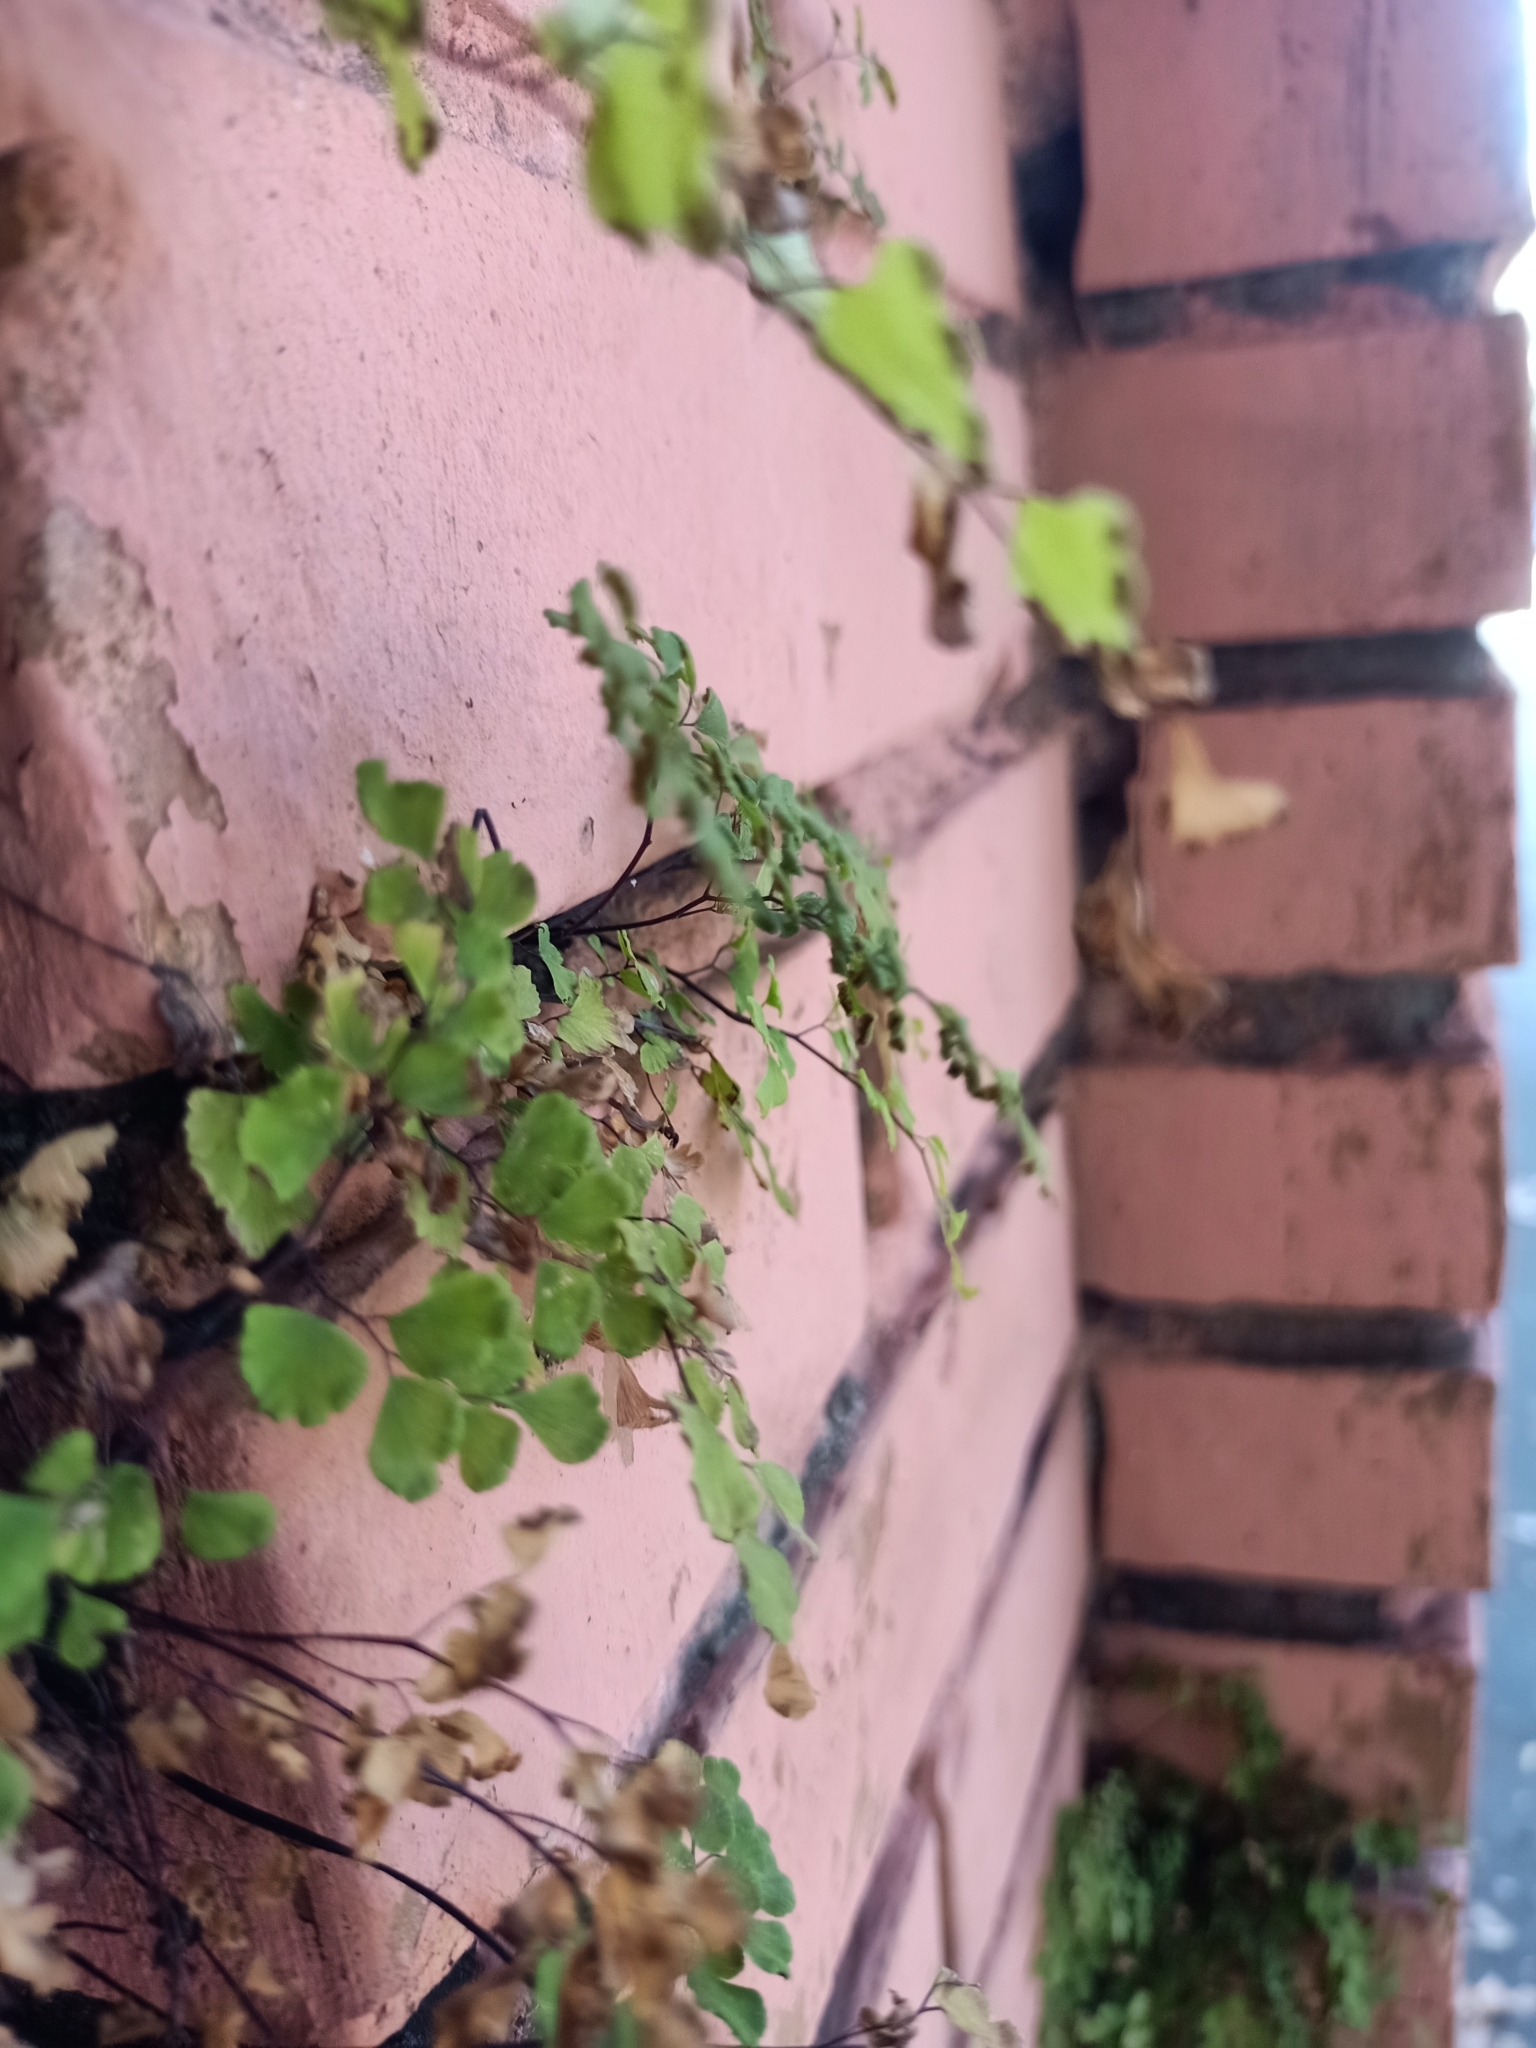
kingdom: Plantae
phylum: Tracheophyta
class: Polypodiopsida
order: Polypodiales
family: Pteridaceae
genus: Adiantum
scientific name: Adiantum capillus-veneris
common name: Maidenhair fern
